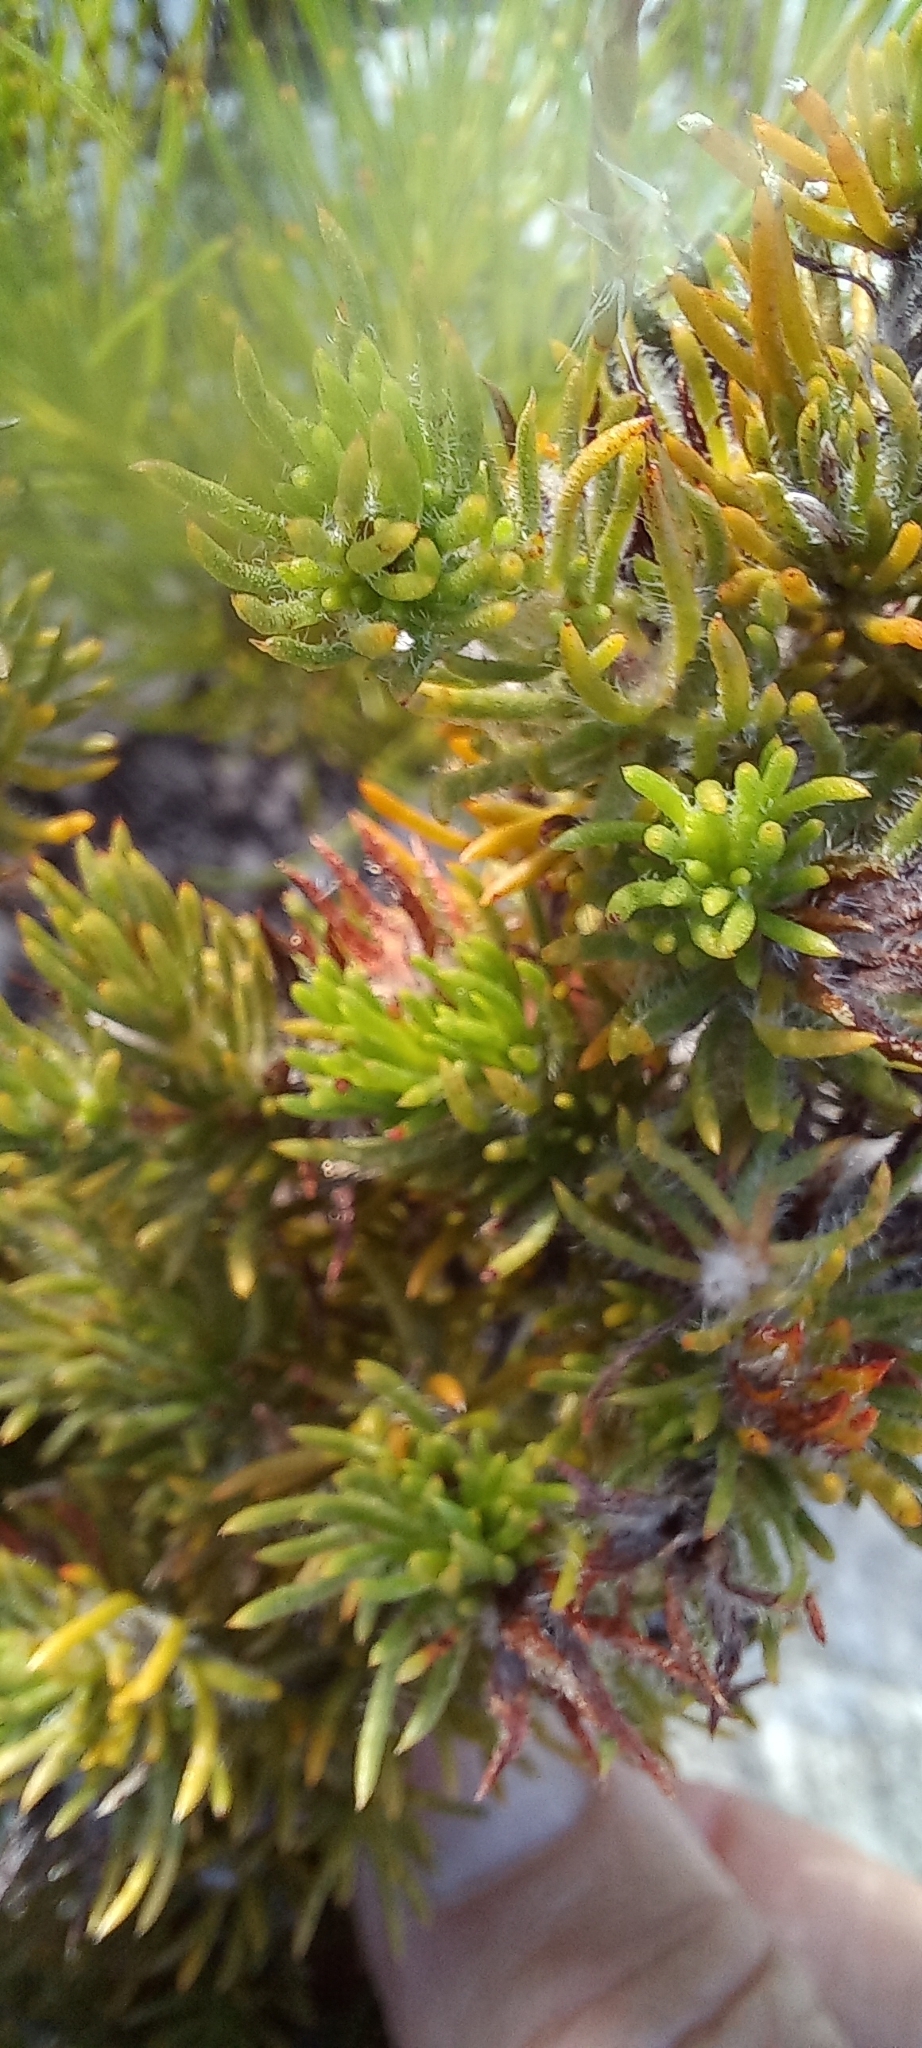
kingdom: Plantae
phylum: Tracheophyta
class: Magnoliopsida
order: Fabales
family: Fabaceae
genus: Aspalathus
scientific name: Aspalathus ciliaris
